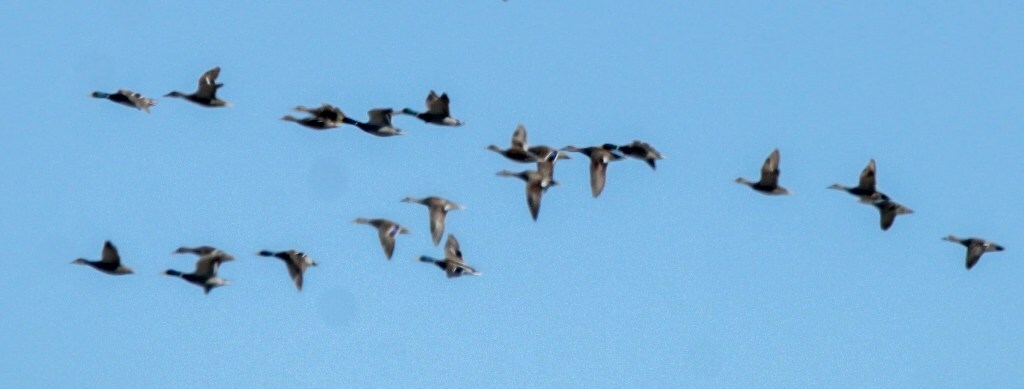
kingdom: Animalia
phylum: Chordata
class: Aves
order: Anseriformes
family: Anatidae
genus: Anas
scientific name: Anas platyrhynchos
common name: Mallard
